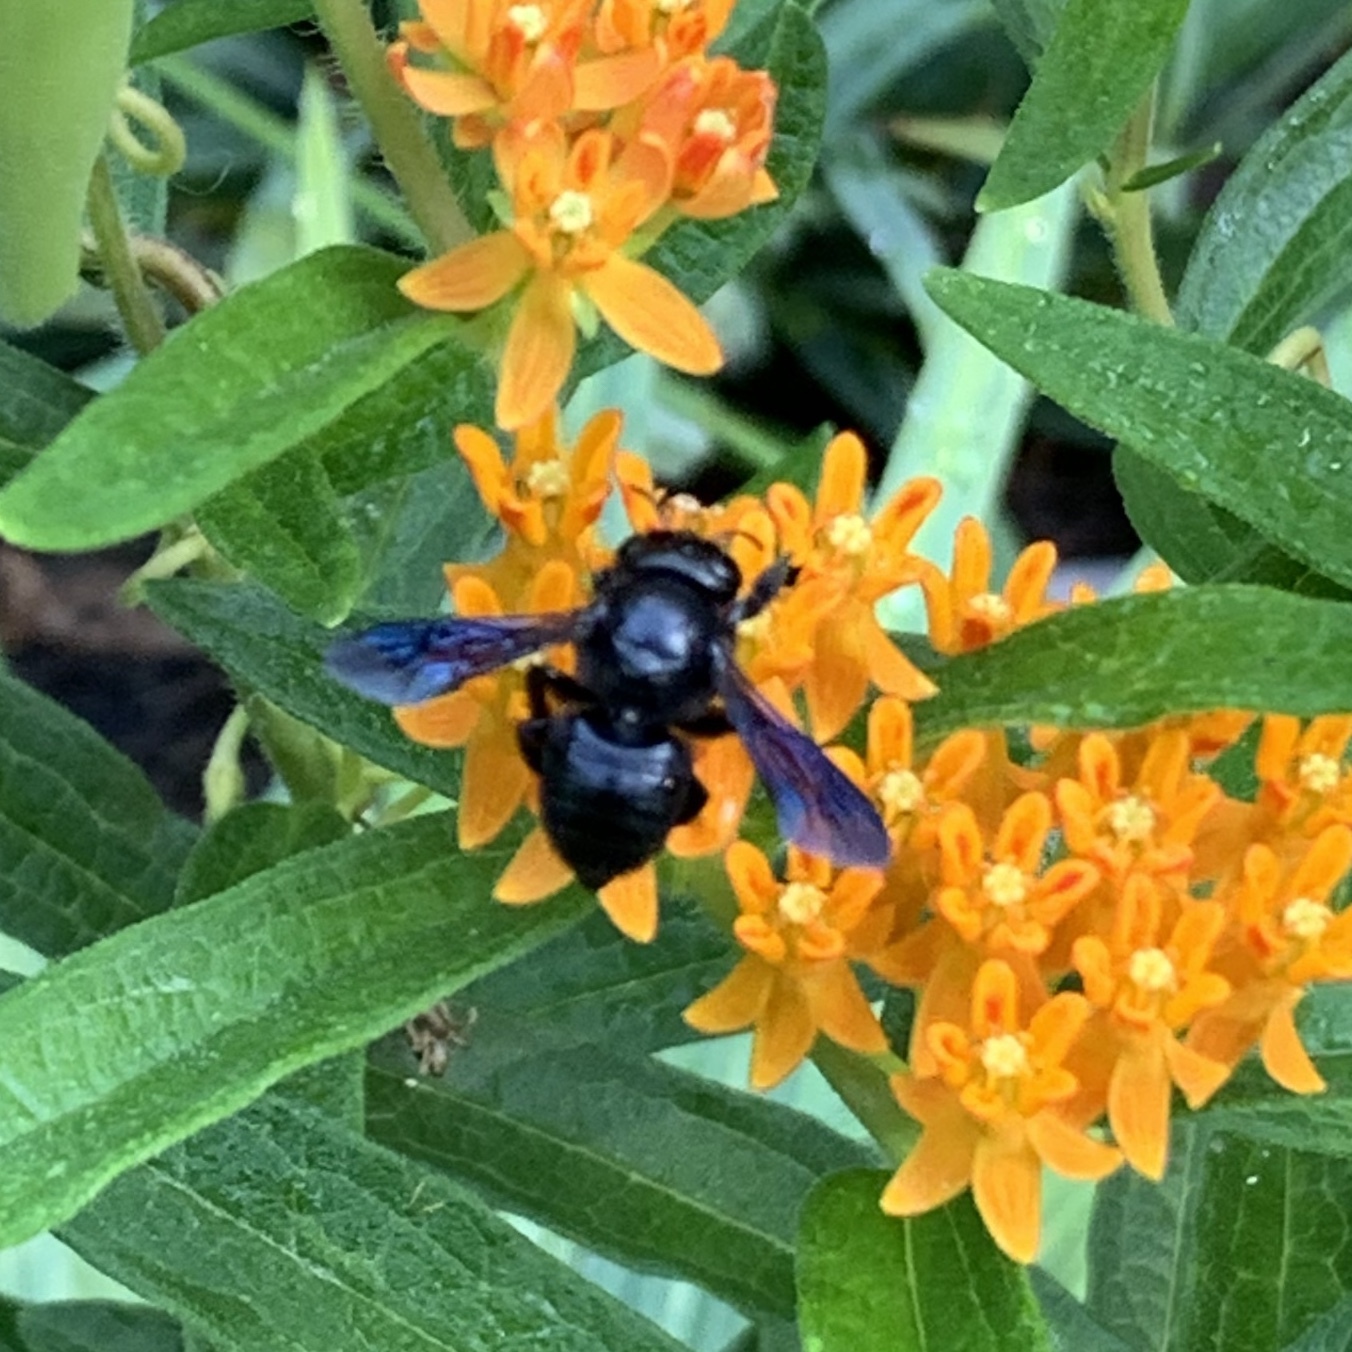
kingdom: Animalia
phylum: Arthropoda
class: Insecta
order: Hymenoptera
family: Megachilidae
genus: Megachile
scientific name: Megachile xylocopoides
